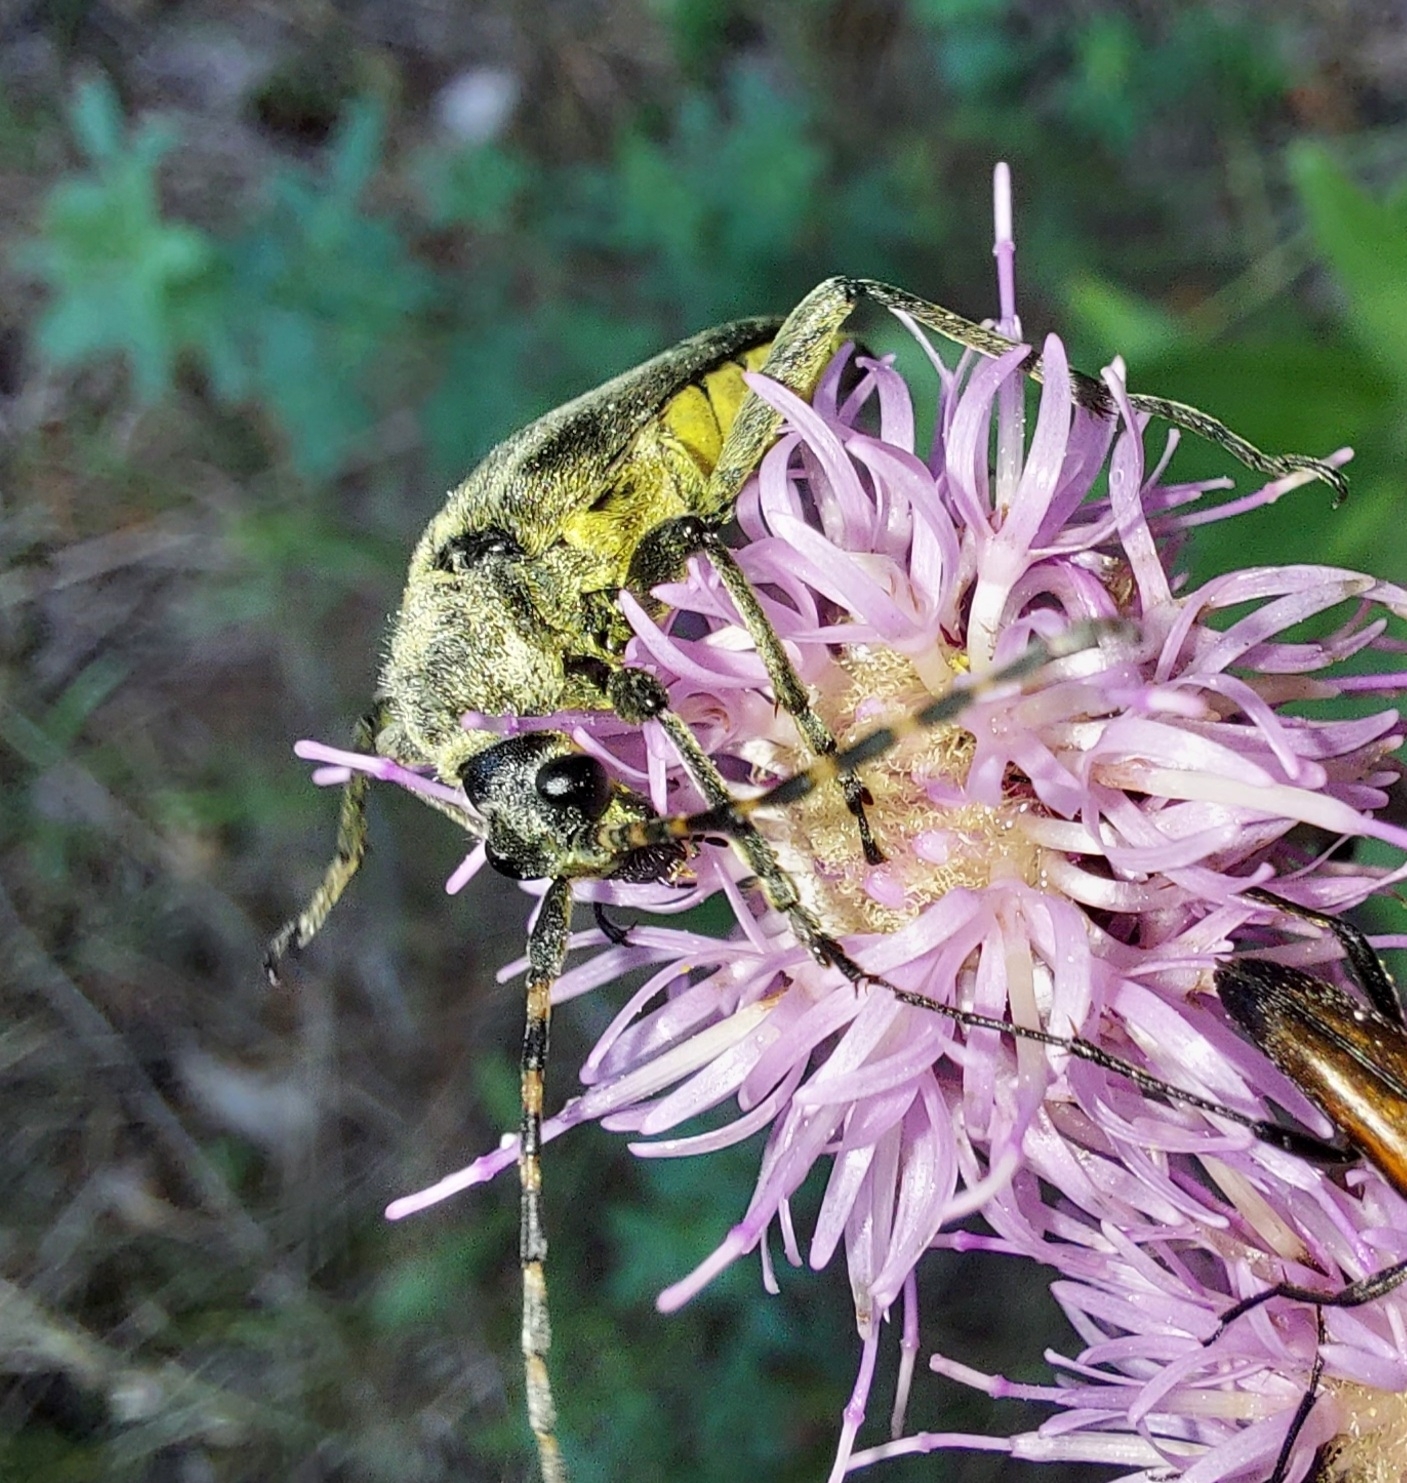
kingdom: Animalia
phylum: Arthropoda
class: Insecta
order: Coleoptera
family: Cerambycidae
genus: Lepturobosca
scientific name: Lepturobosca virens
